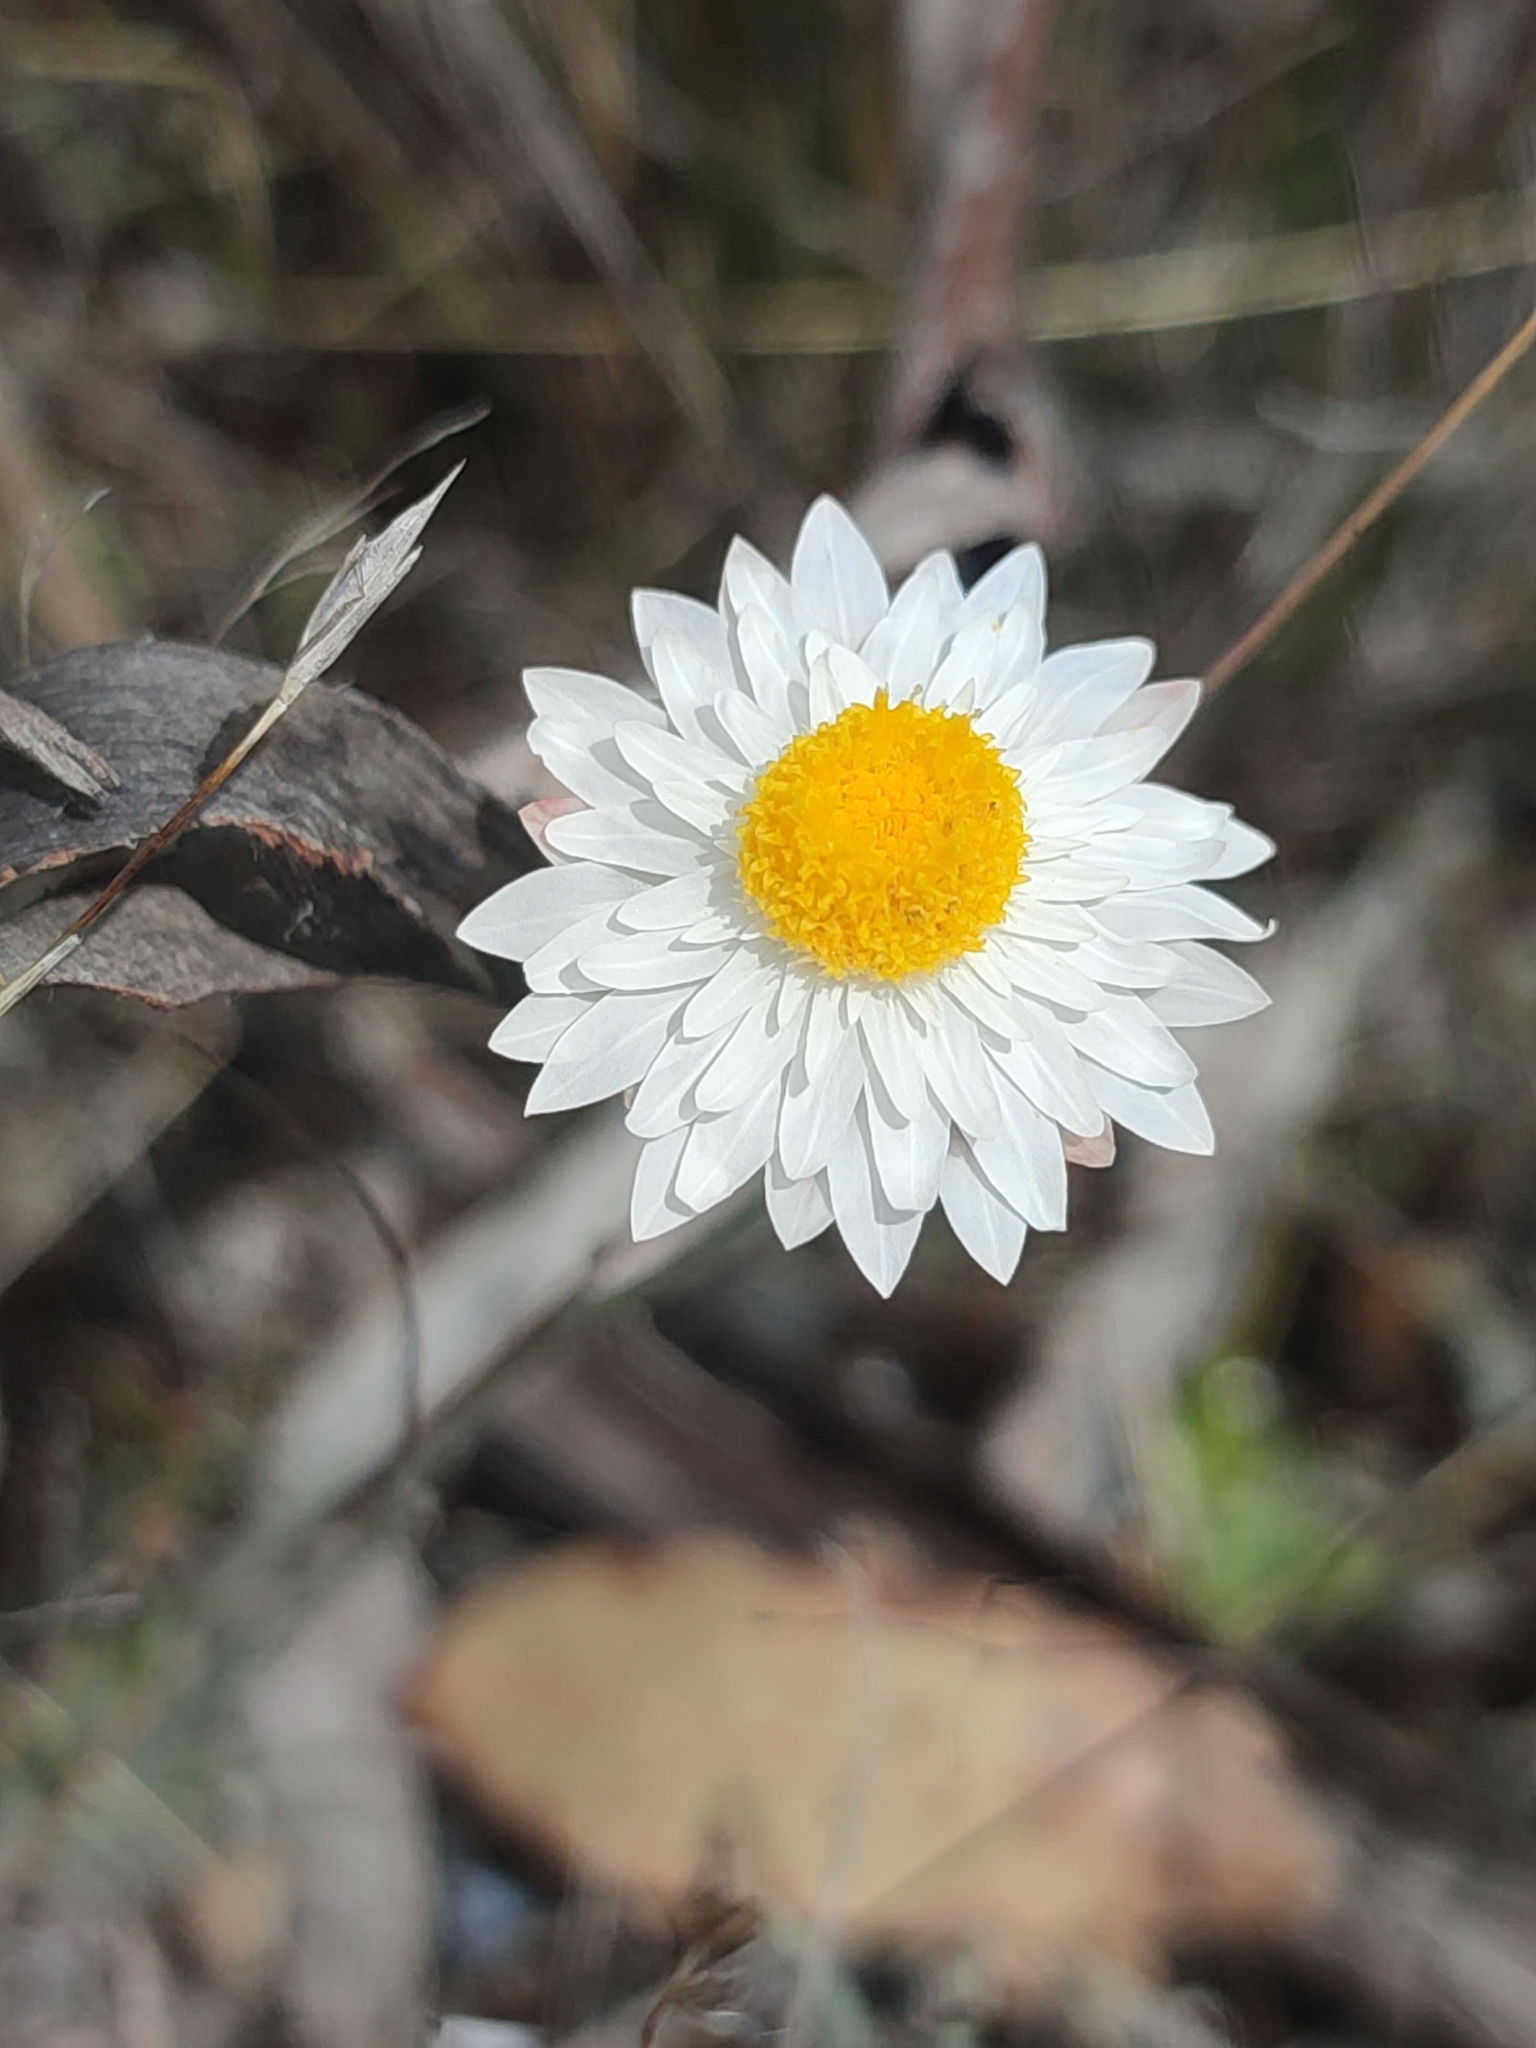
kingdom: Plantae
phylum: Tracheophyta
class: Magnoliopsida
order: Asterales
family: Asteraceae
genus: Leucochrysum
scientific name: Leucochrysum albicans
